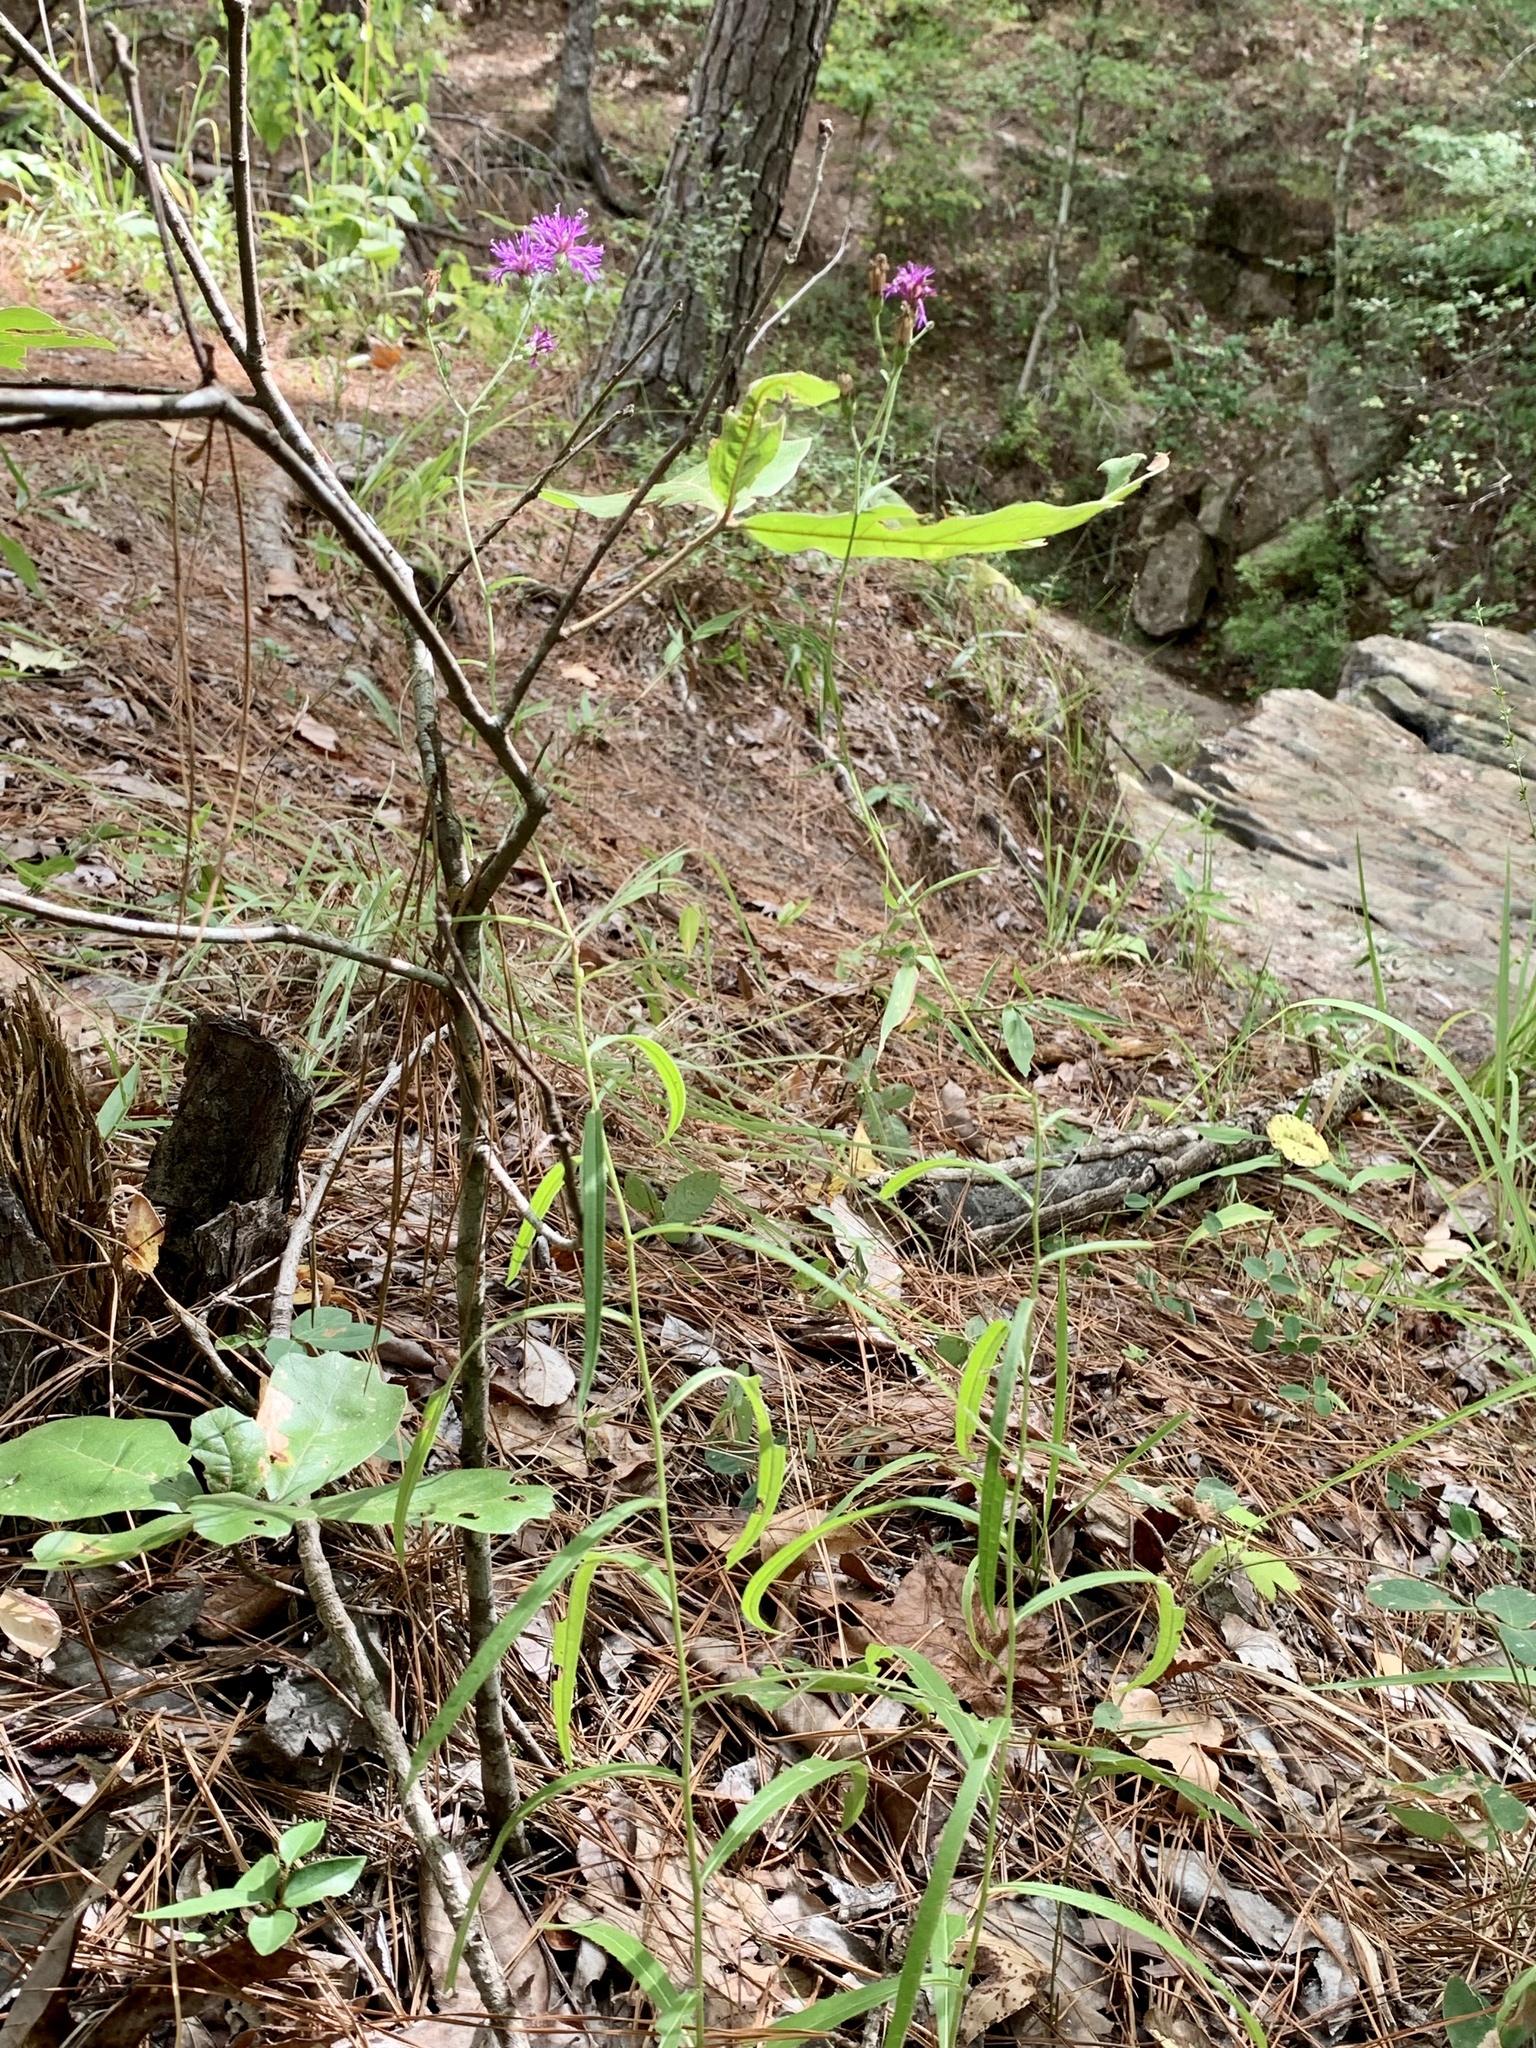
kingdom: Plantae
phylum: Tracheophyta
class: Magnoliopsida
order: Asterales
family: Asteraceae
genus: Vernonia
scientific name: Vernonia texana
